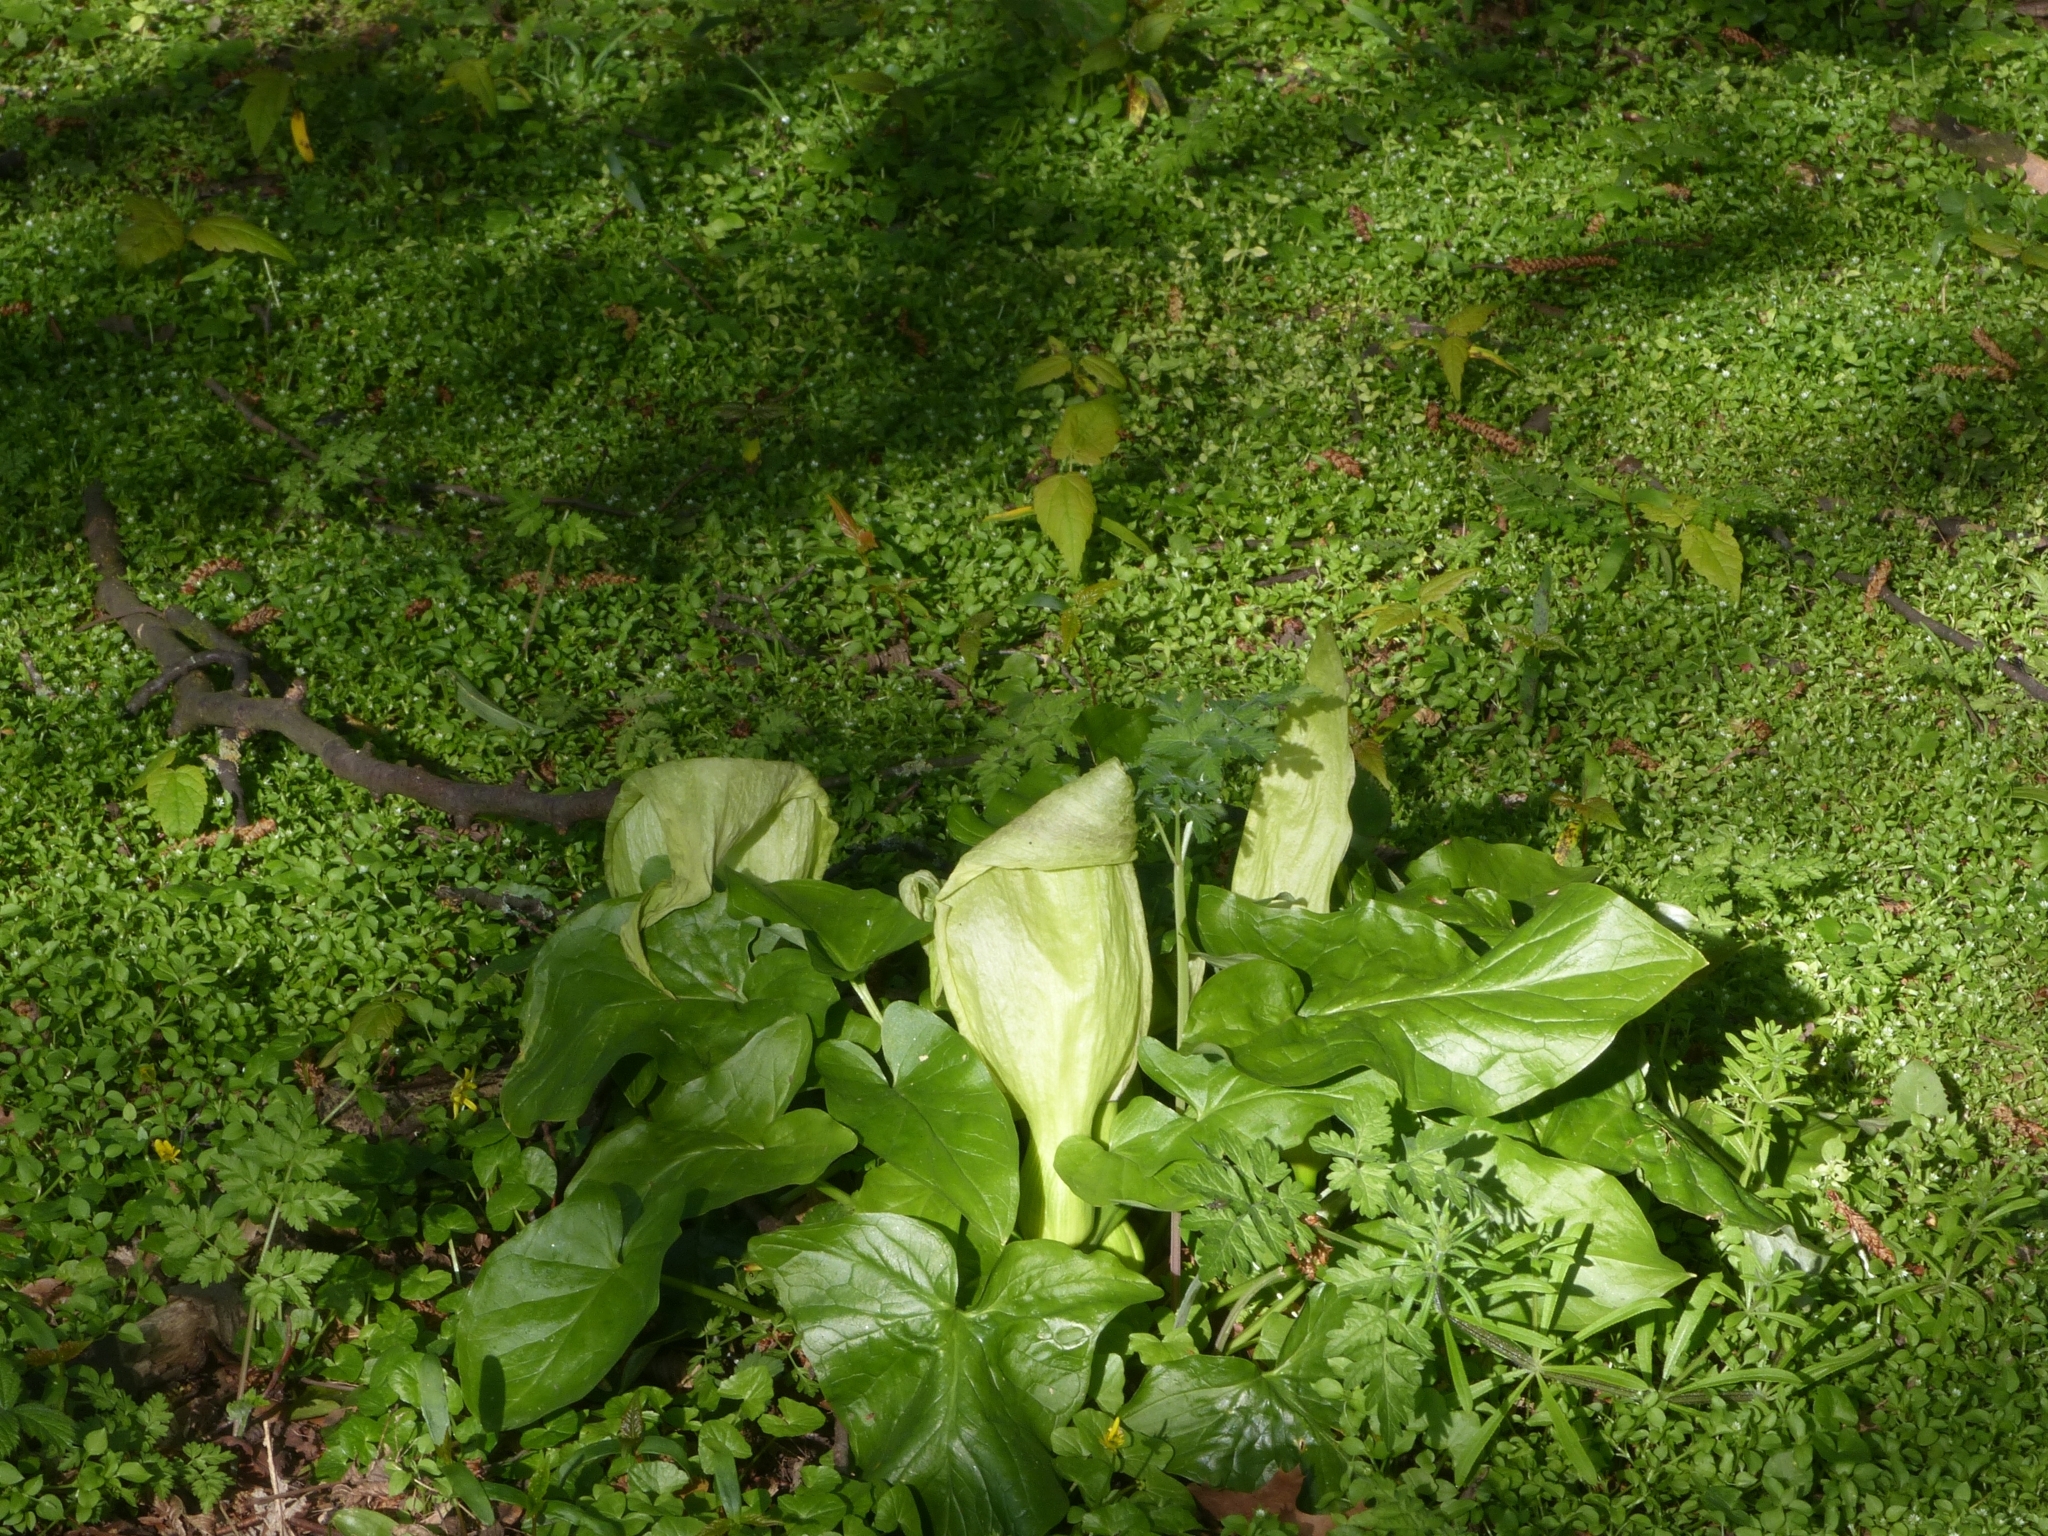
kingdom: Plantae
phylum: Tracheophyta
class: Liliopsida
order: Alismatales
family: Araceae
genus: Arum
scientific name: Arum maculatum
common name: Lords-and-ladies
